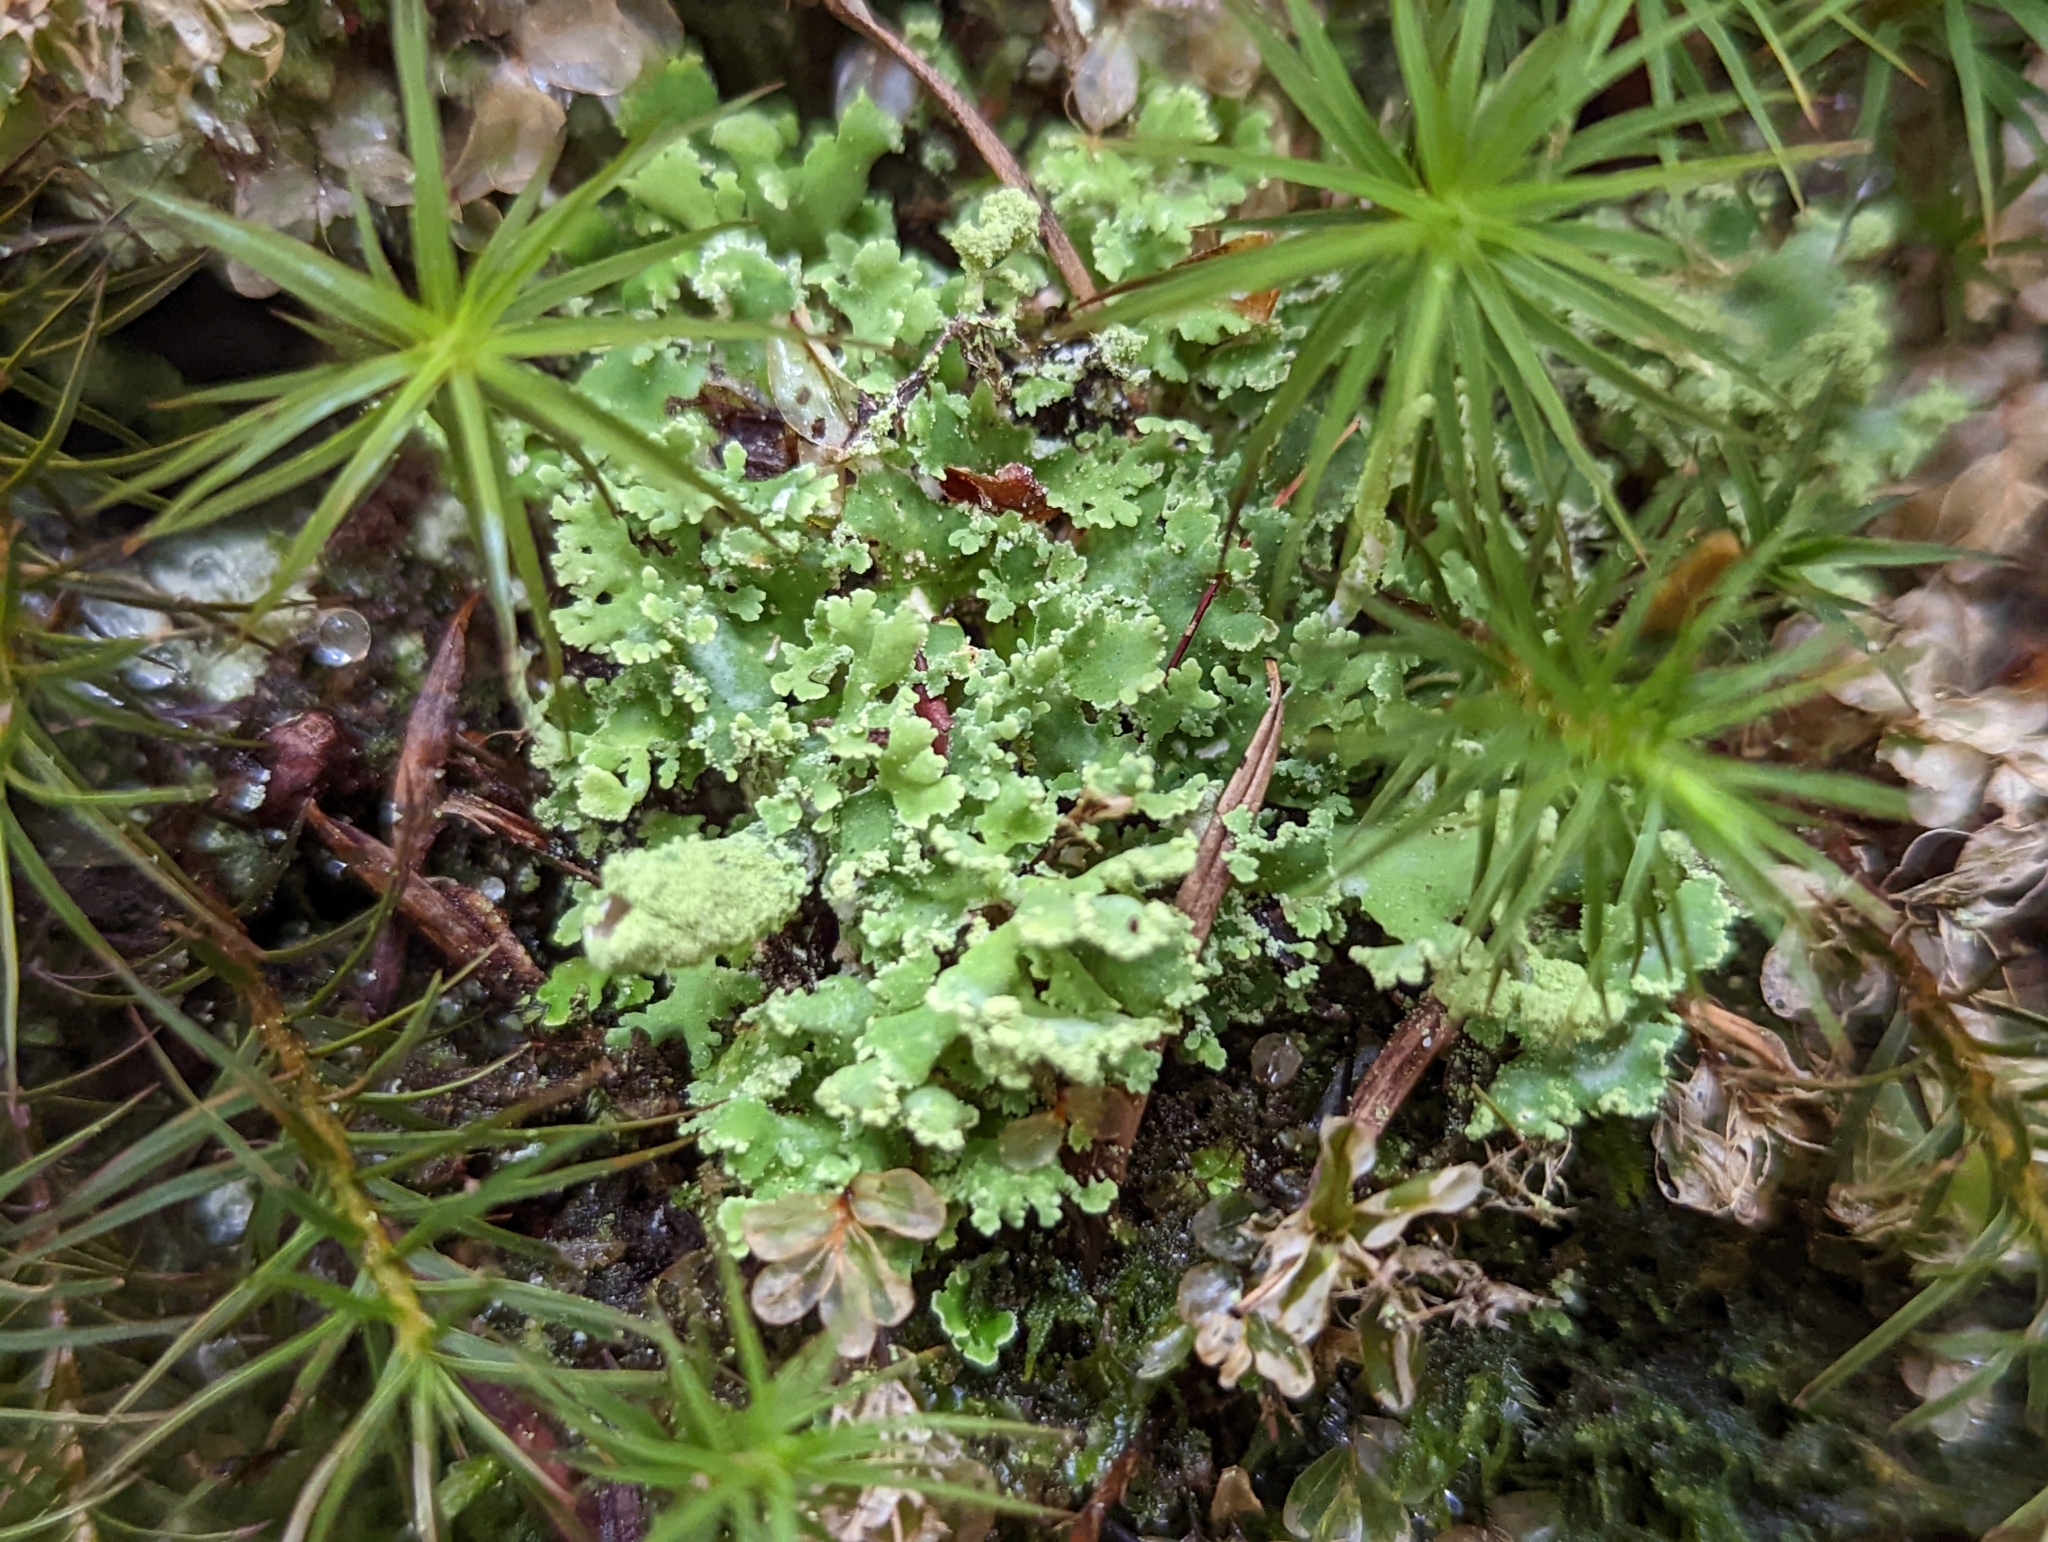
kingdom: Fungi
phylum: Ascomycota
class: Lecanoromycetes
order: Lecanorales
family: Cladoniaceae
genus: Cladonia
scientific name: Cladonia coniocraea
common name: Common powderhorn
